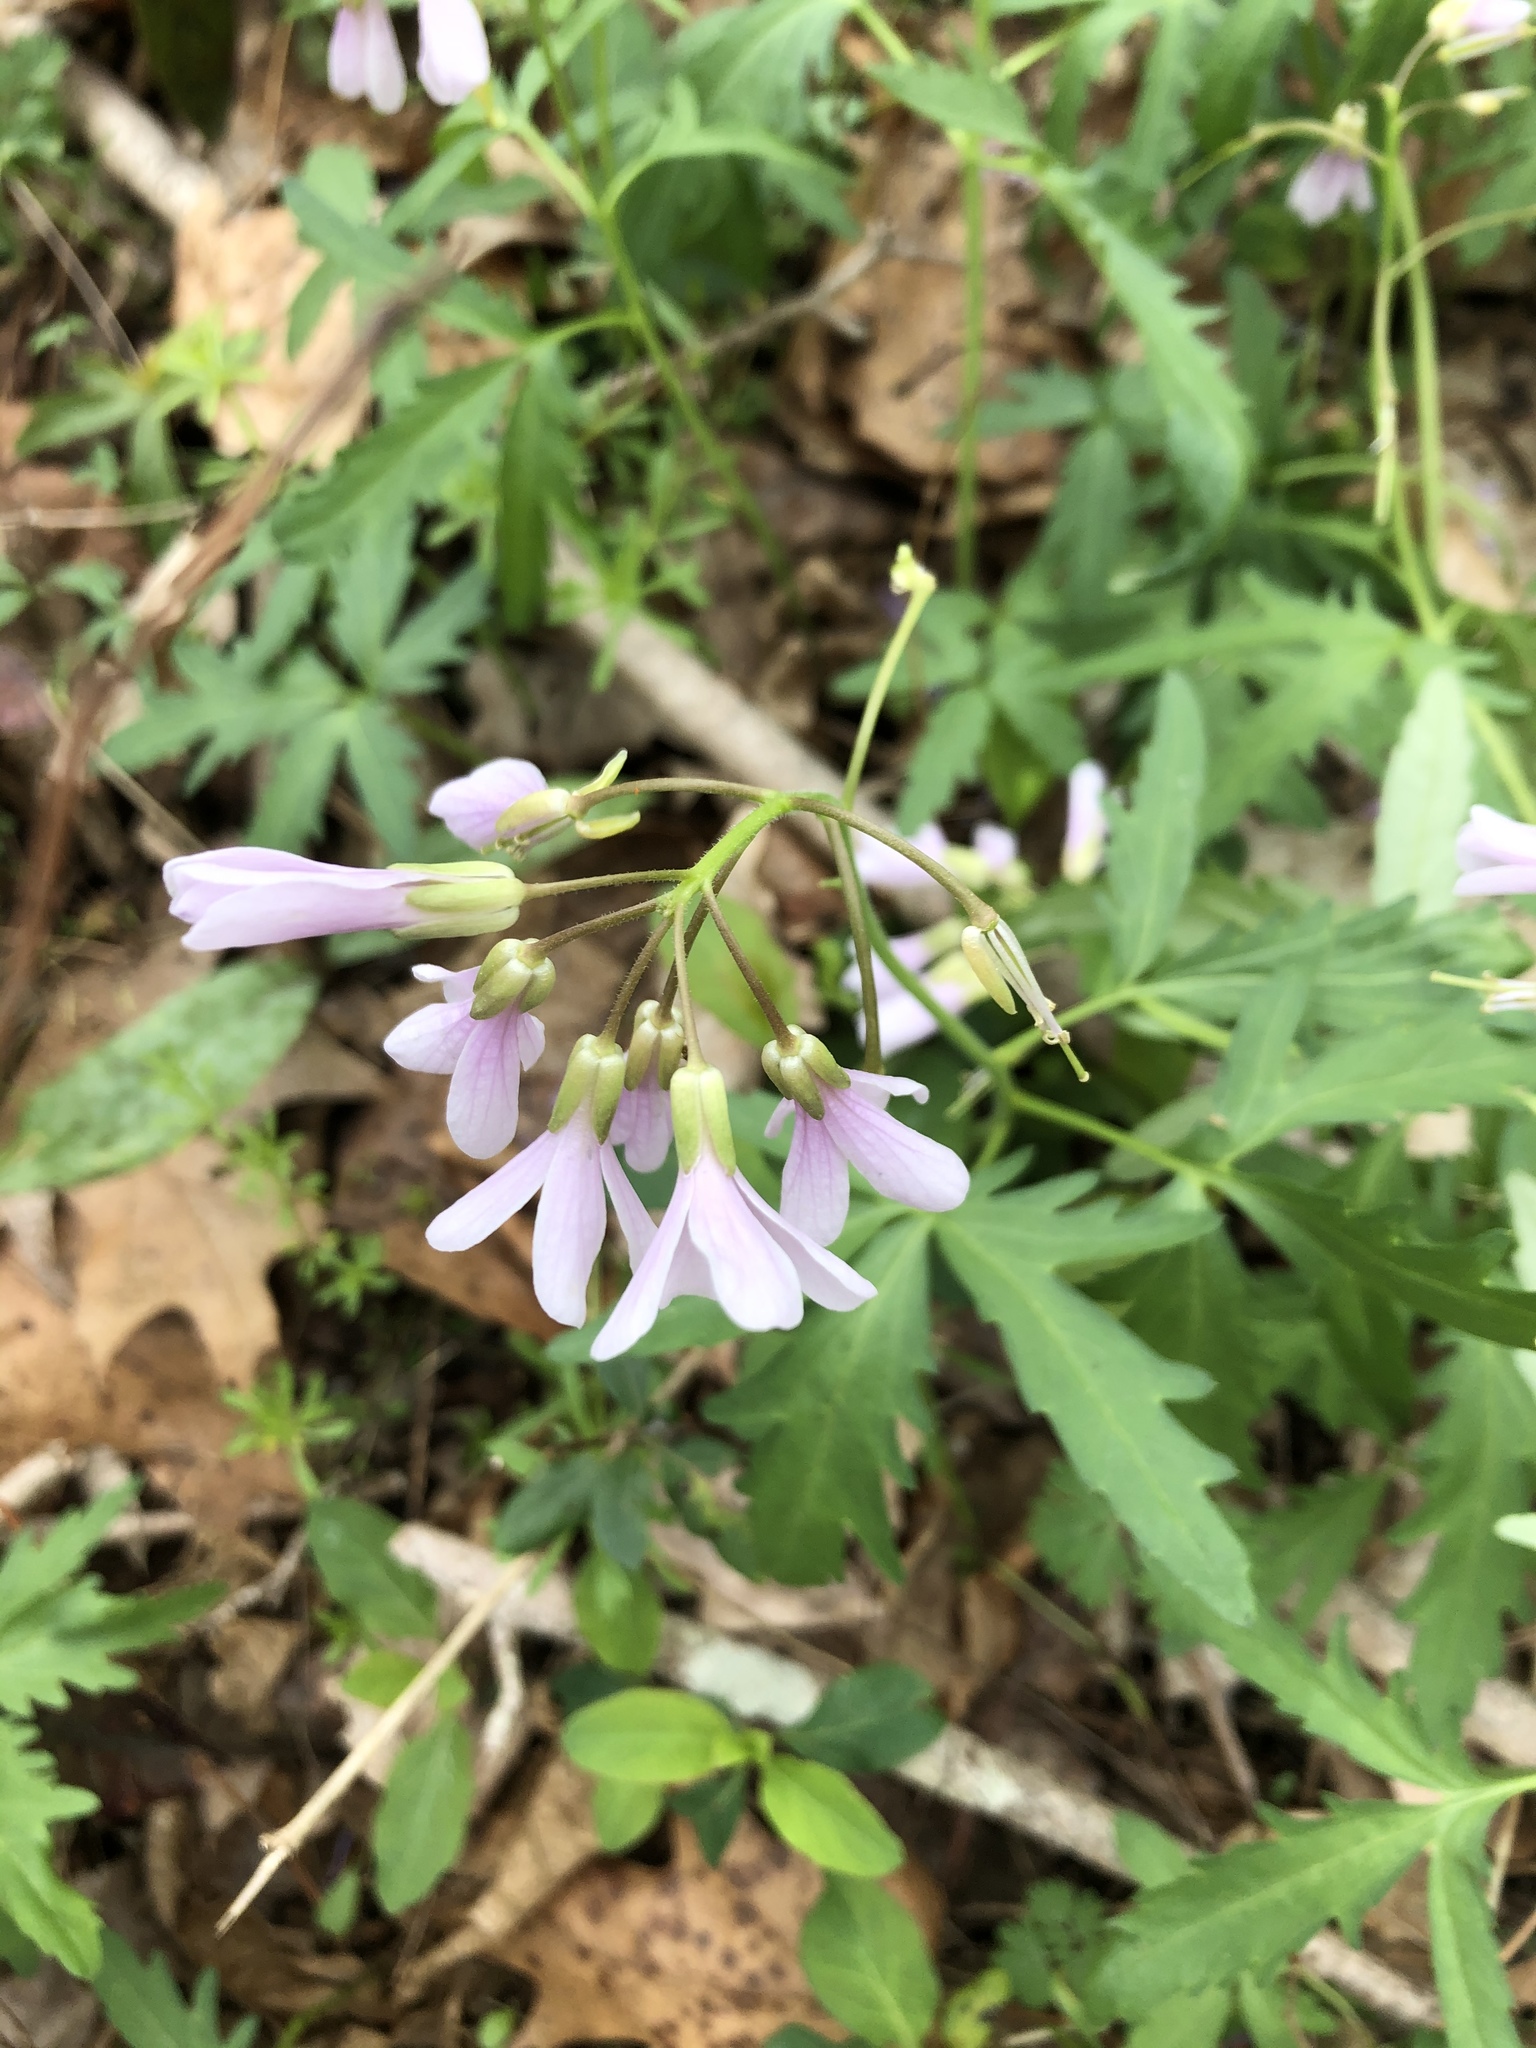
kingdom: Plantae
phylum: Tracheophyta
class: Magnoliopsida
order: Brassicales
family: Brassicaceae
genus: Cardamine
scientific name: Cardamine concatenata
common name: Cut-leaf toothcup
